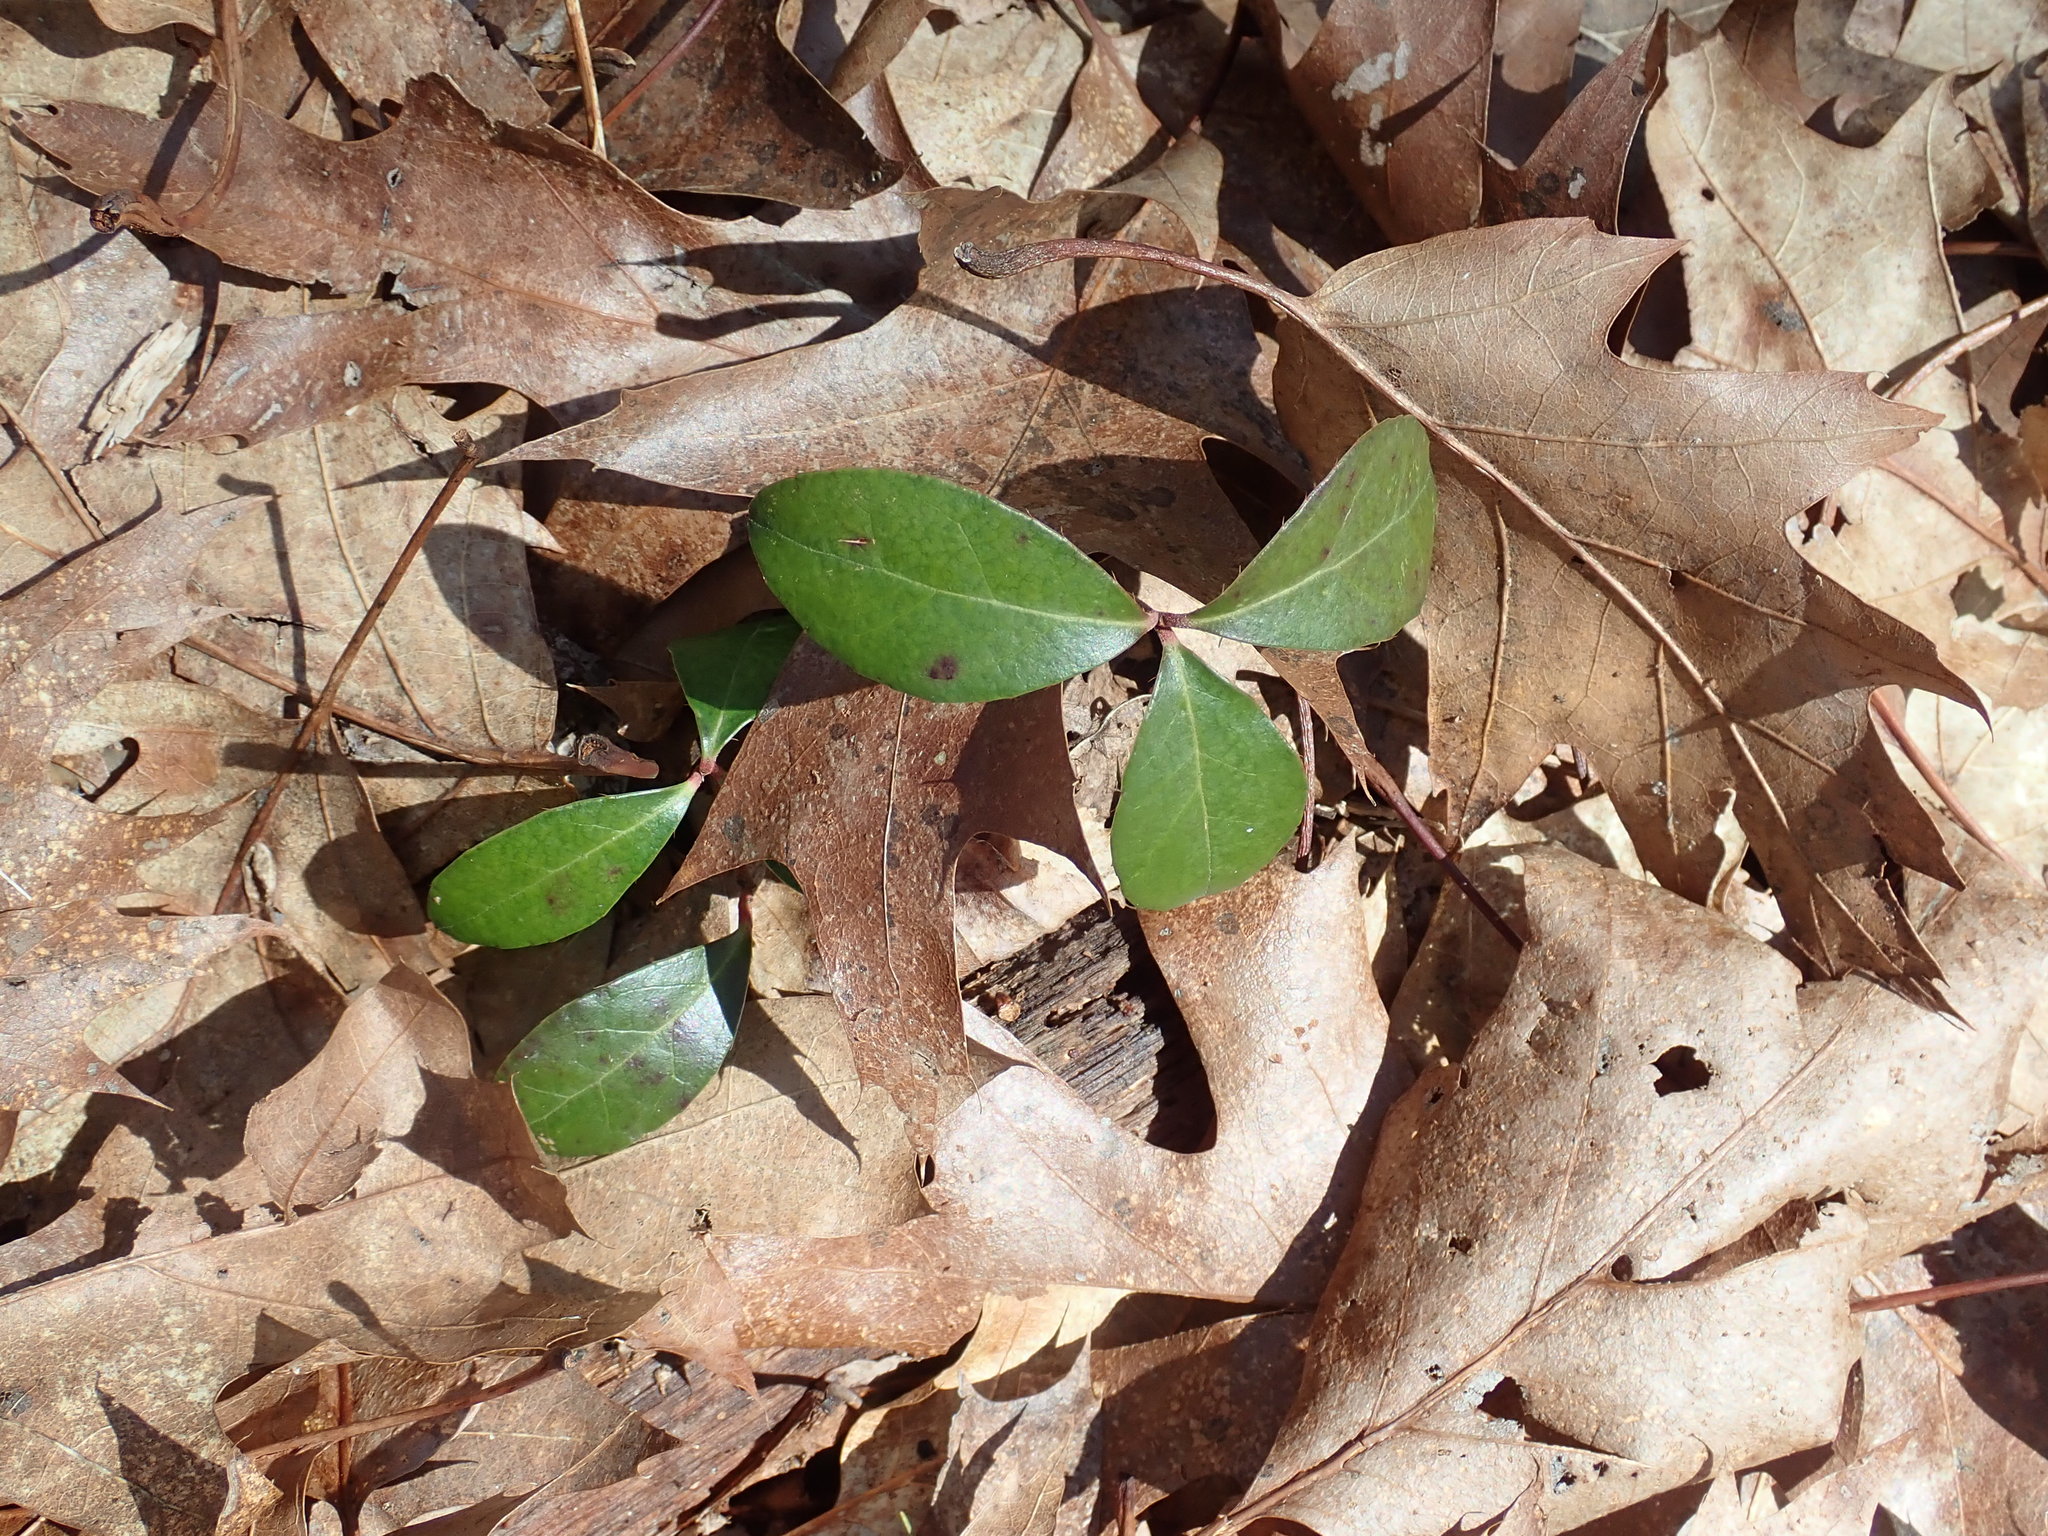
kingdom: Plantae
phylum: Tracheophyta
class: Magnoliopsida
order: Ericales
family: Ericaceae
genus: Gaultheria
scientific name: Gaultheria procumbens
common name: Checkerberry
